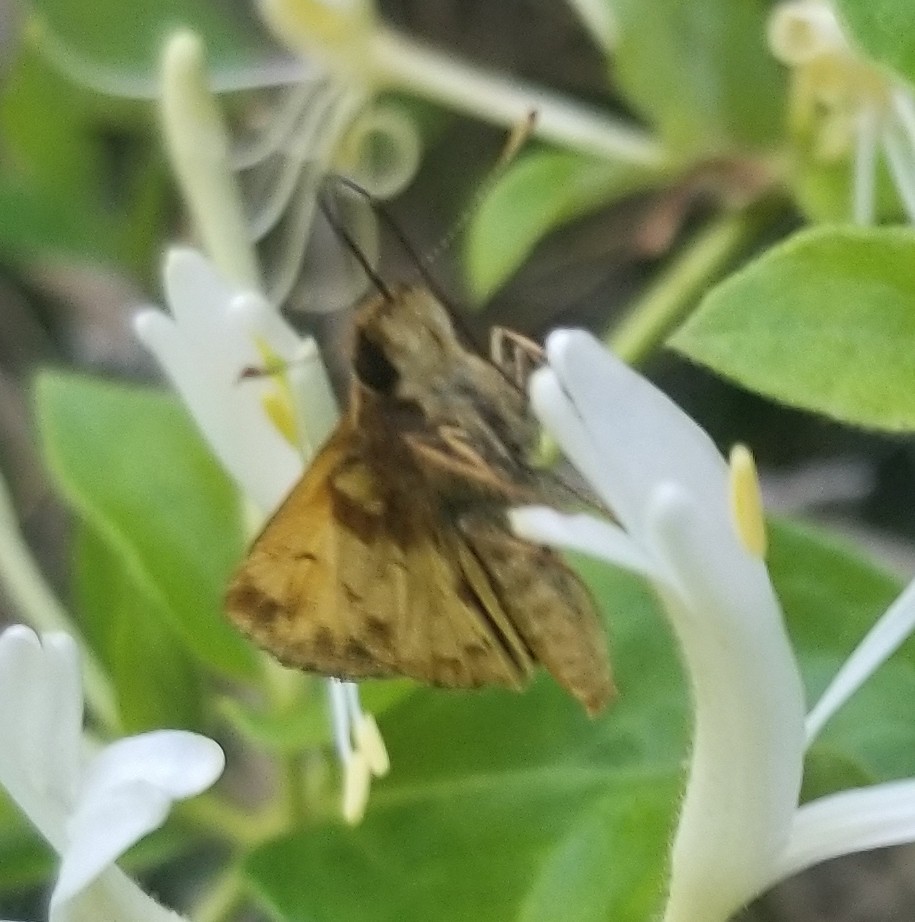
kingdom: Animalia
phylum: Arthropoda
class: Insecta
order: Lepidoptera
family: Hesperiidae
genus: Lon
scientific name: Lon zabulon
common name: Zabulon skipper
